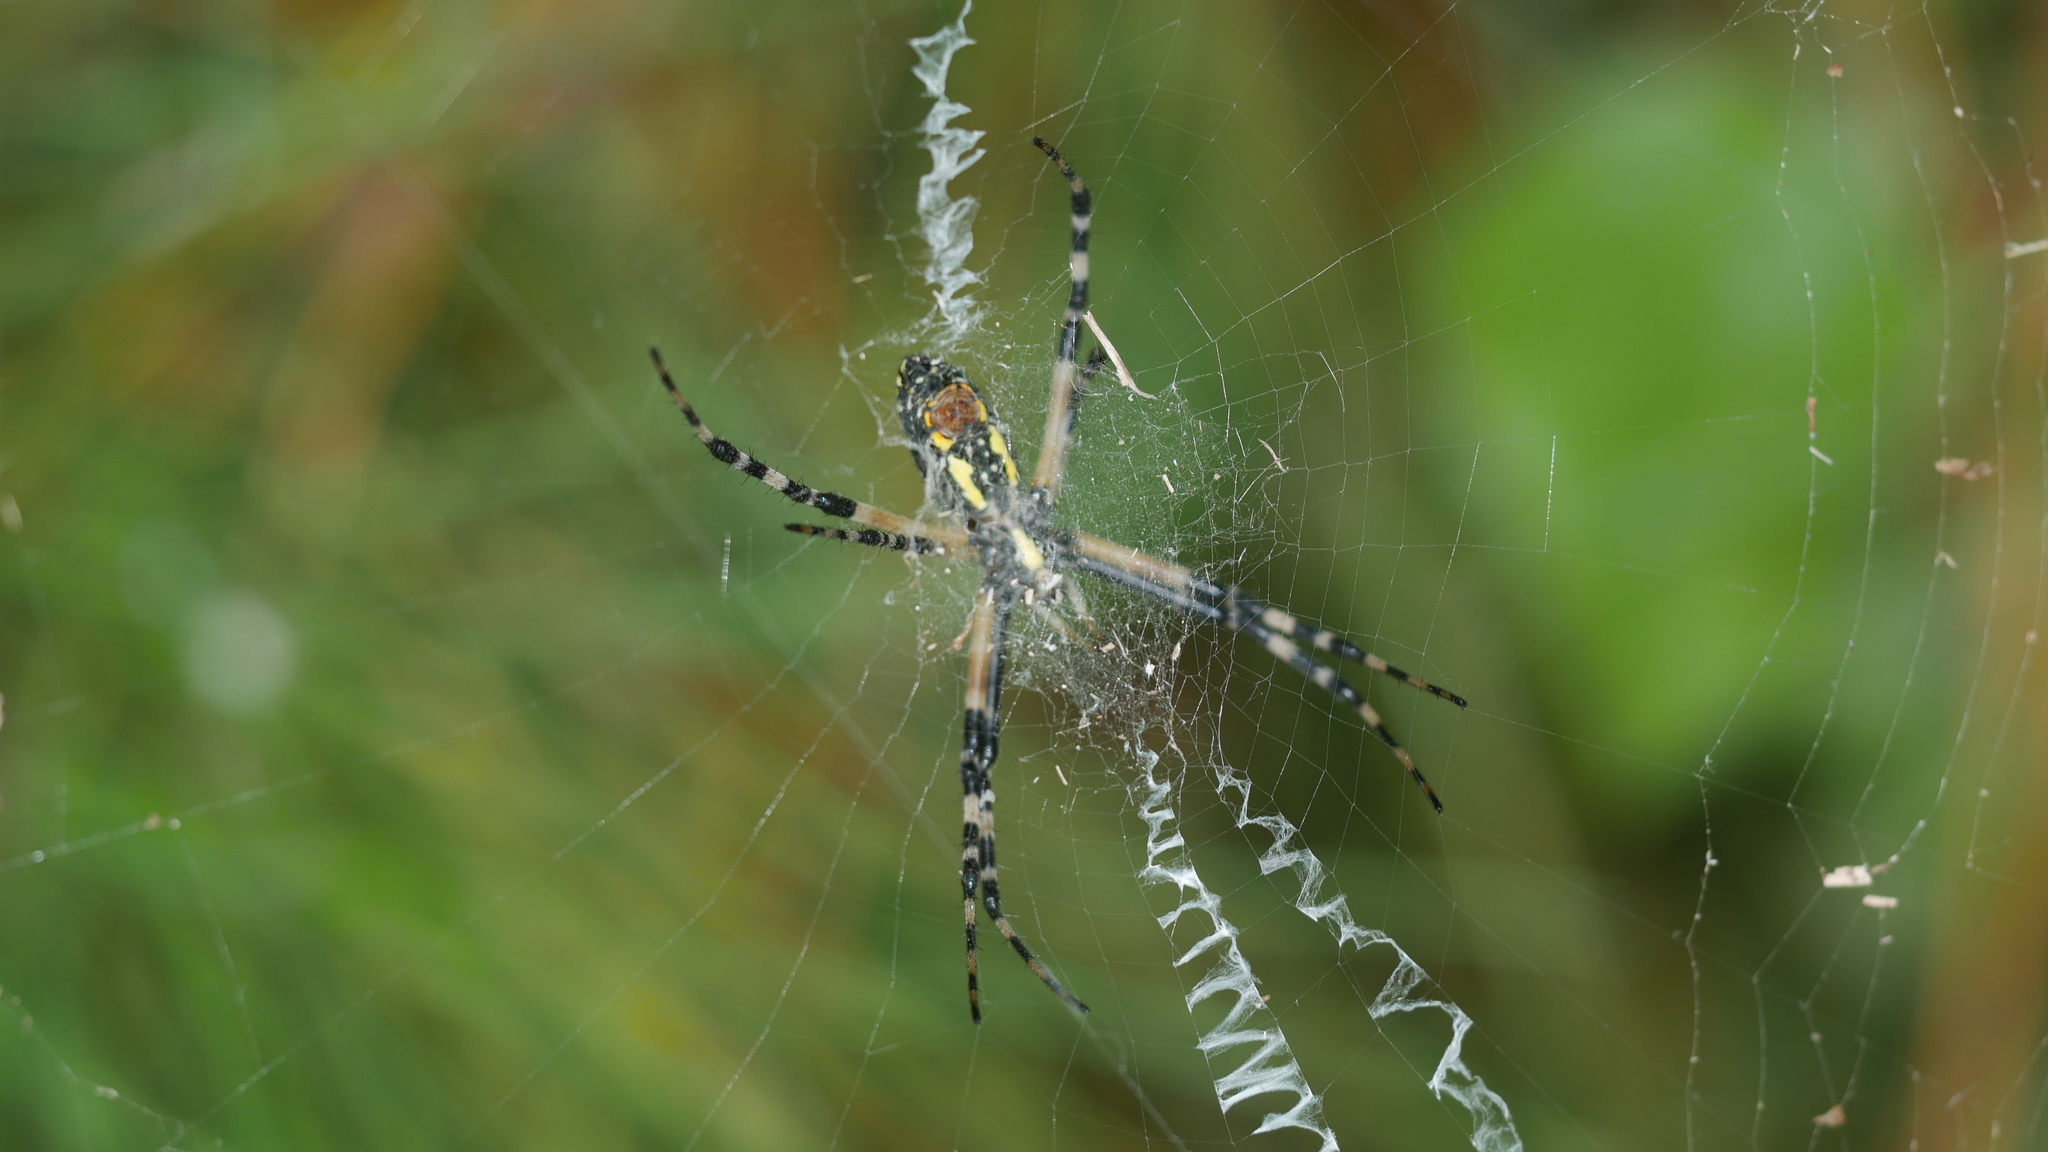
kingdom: Animalia
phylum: Arthropoda
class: Arachnida
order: Araneae
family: Araneidae
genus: Argiope
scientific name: Argiope aurantia
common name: Orb weavers
